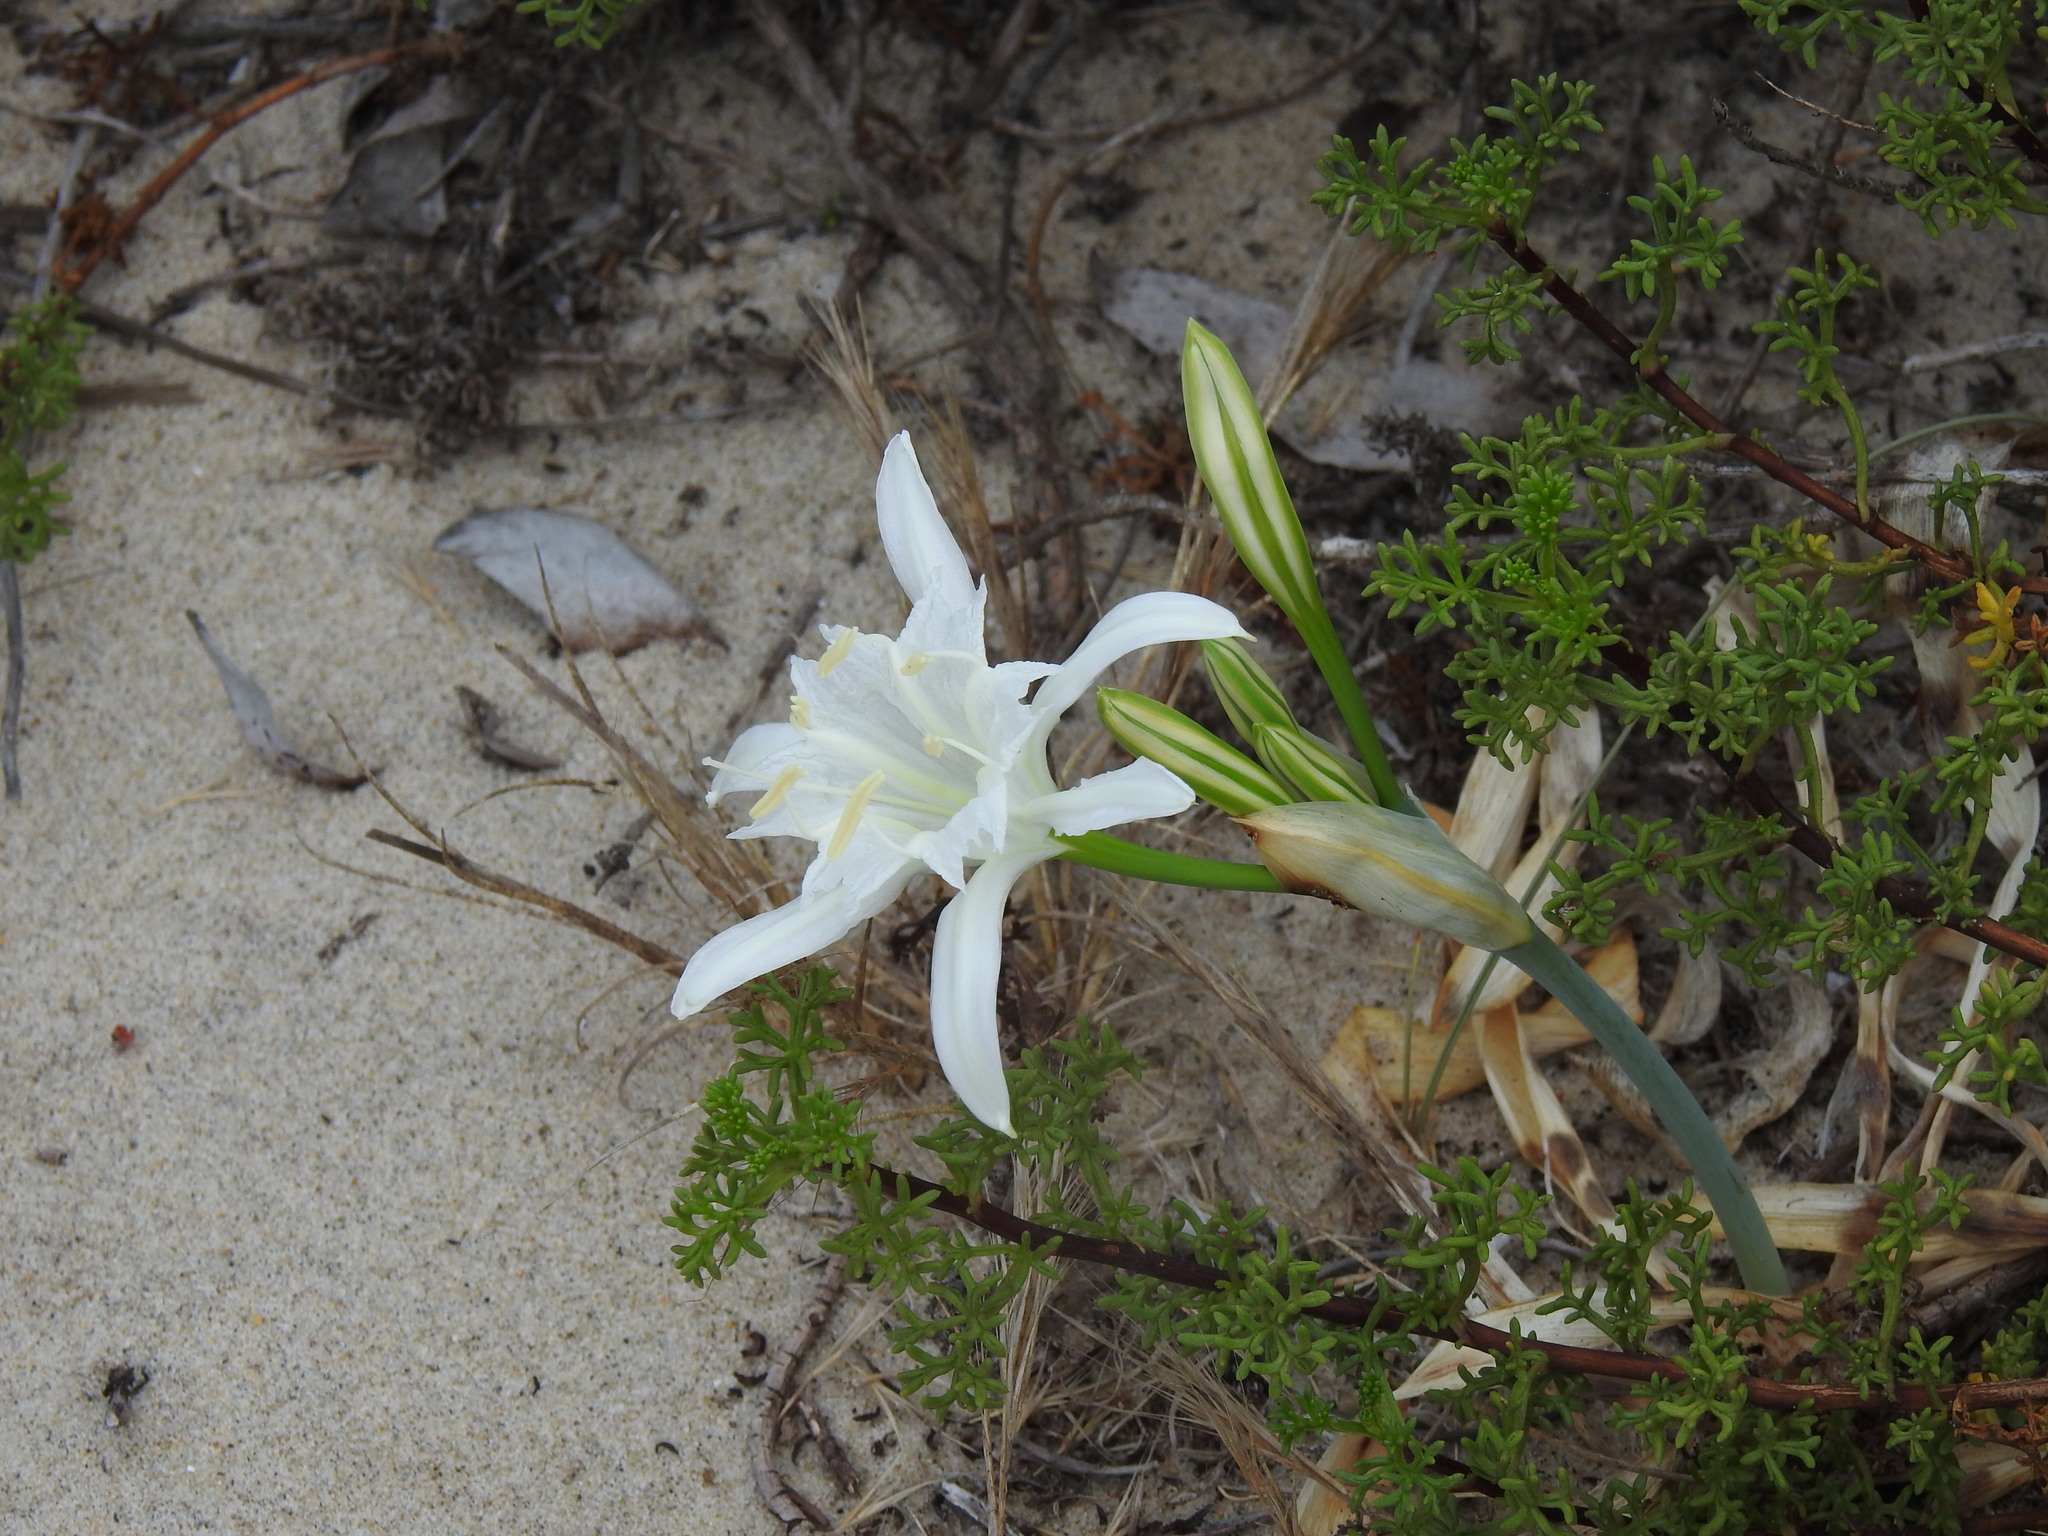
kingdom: Plantae
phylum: Tracheophyta
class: Liliopsida
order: Asparagales
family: Amaryllidaceae
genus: Pancratium
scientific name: Pancratium maritimum
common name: Sea-daffodil
